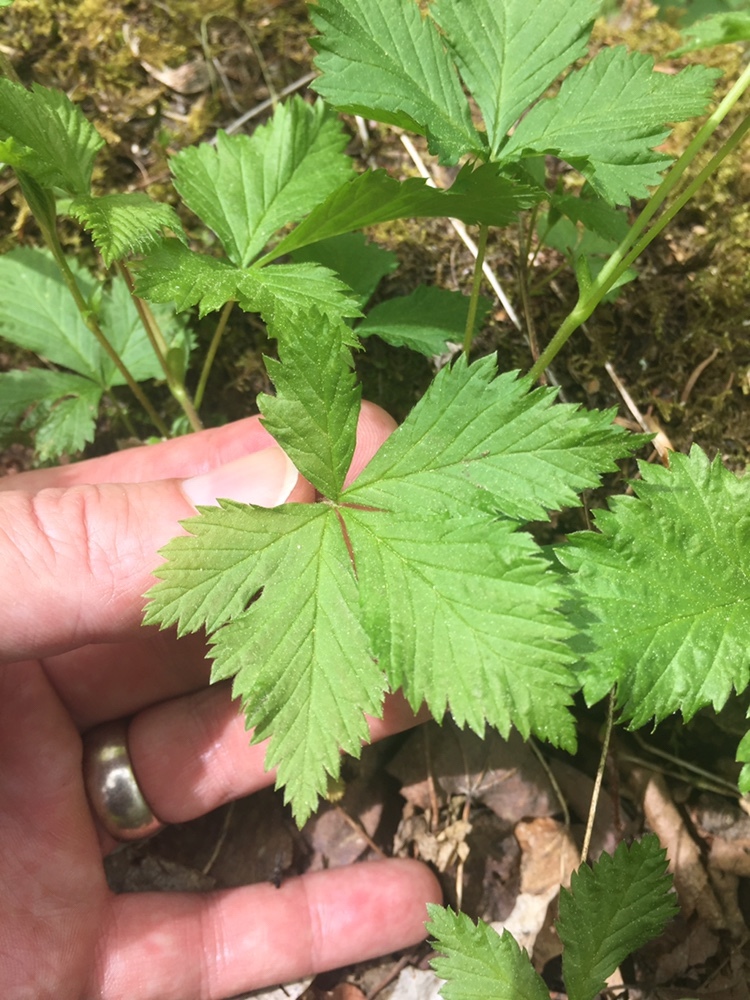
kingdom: Plantae
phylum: Tracheophyta
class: Magnoliopsida
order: Rosales
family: Rosaceae
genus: Rubus
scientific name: Rubus pubescens
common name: Dwarf raspberry
